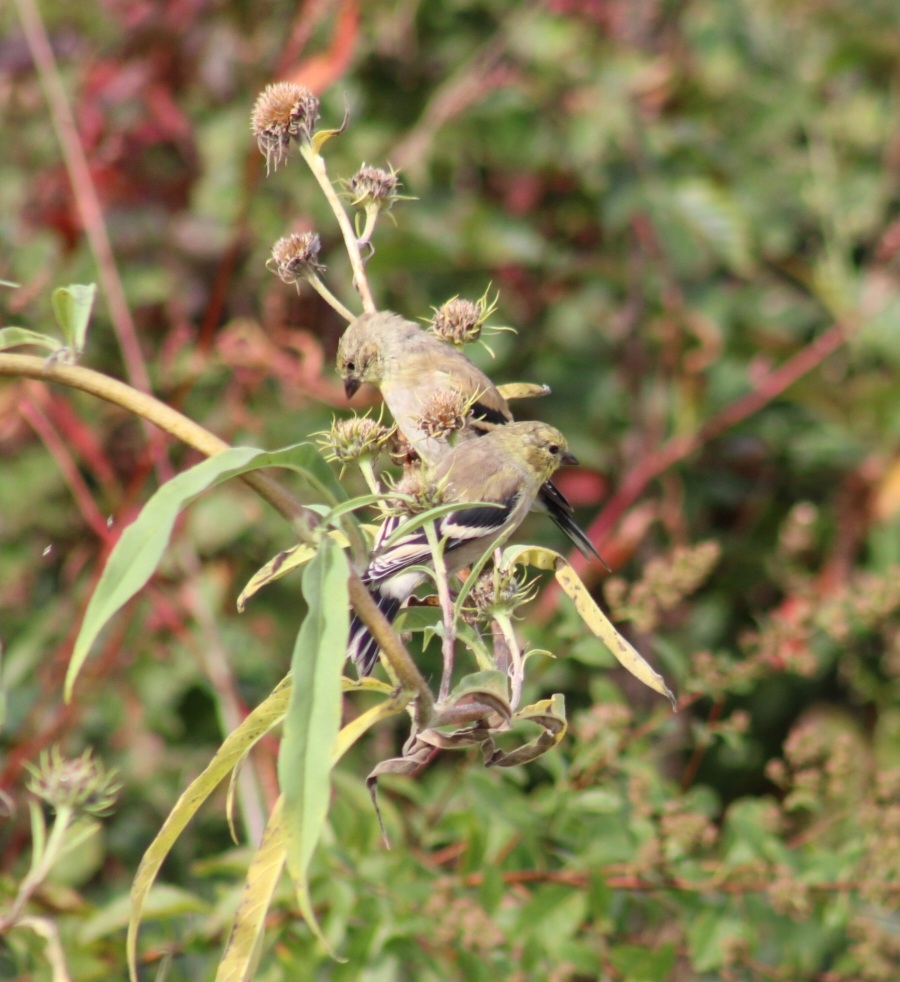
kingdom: Animalia
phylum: Chordata
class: Aves
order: Passeriformes
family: Fringillidae
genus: Spinus
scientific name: Spinus tristis
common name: American goldfinch
